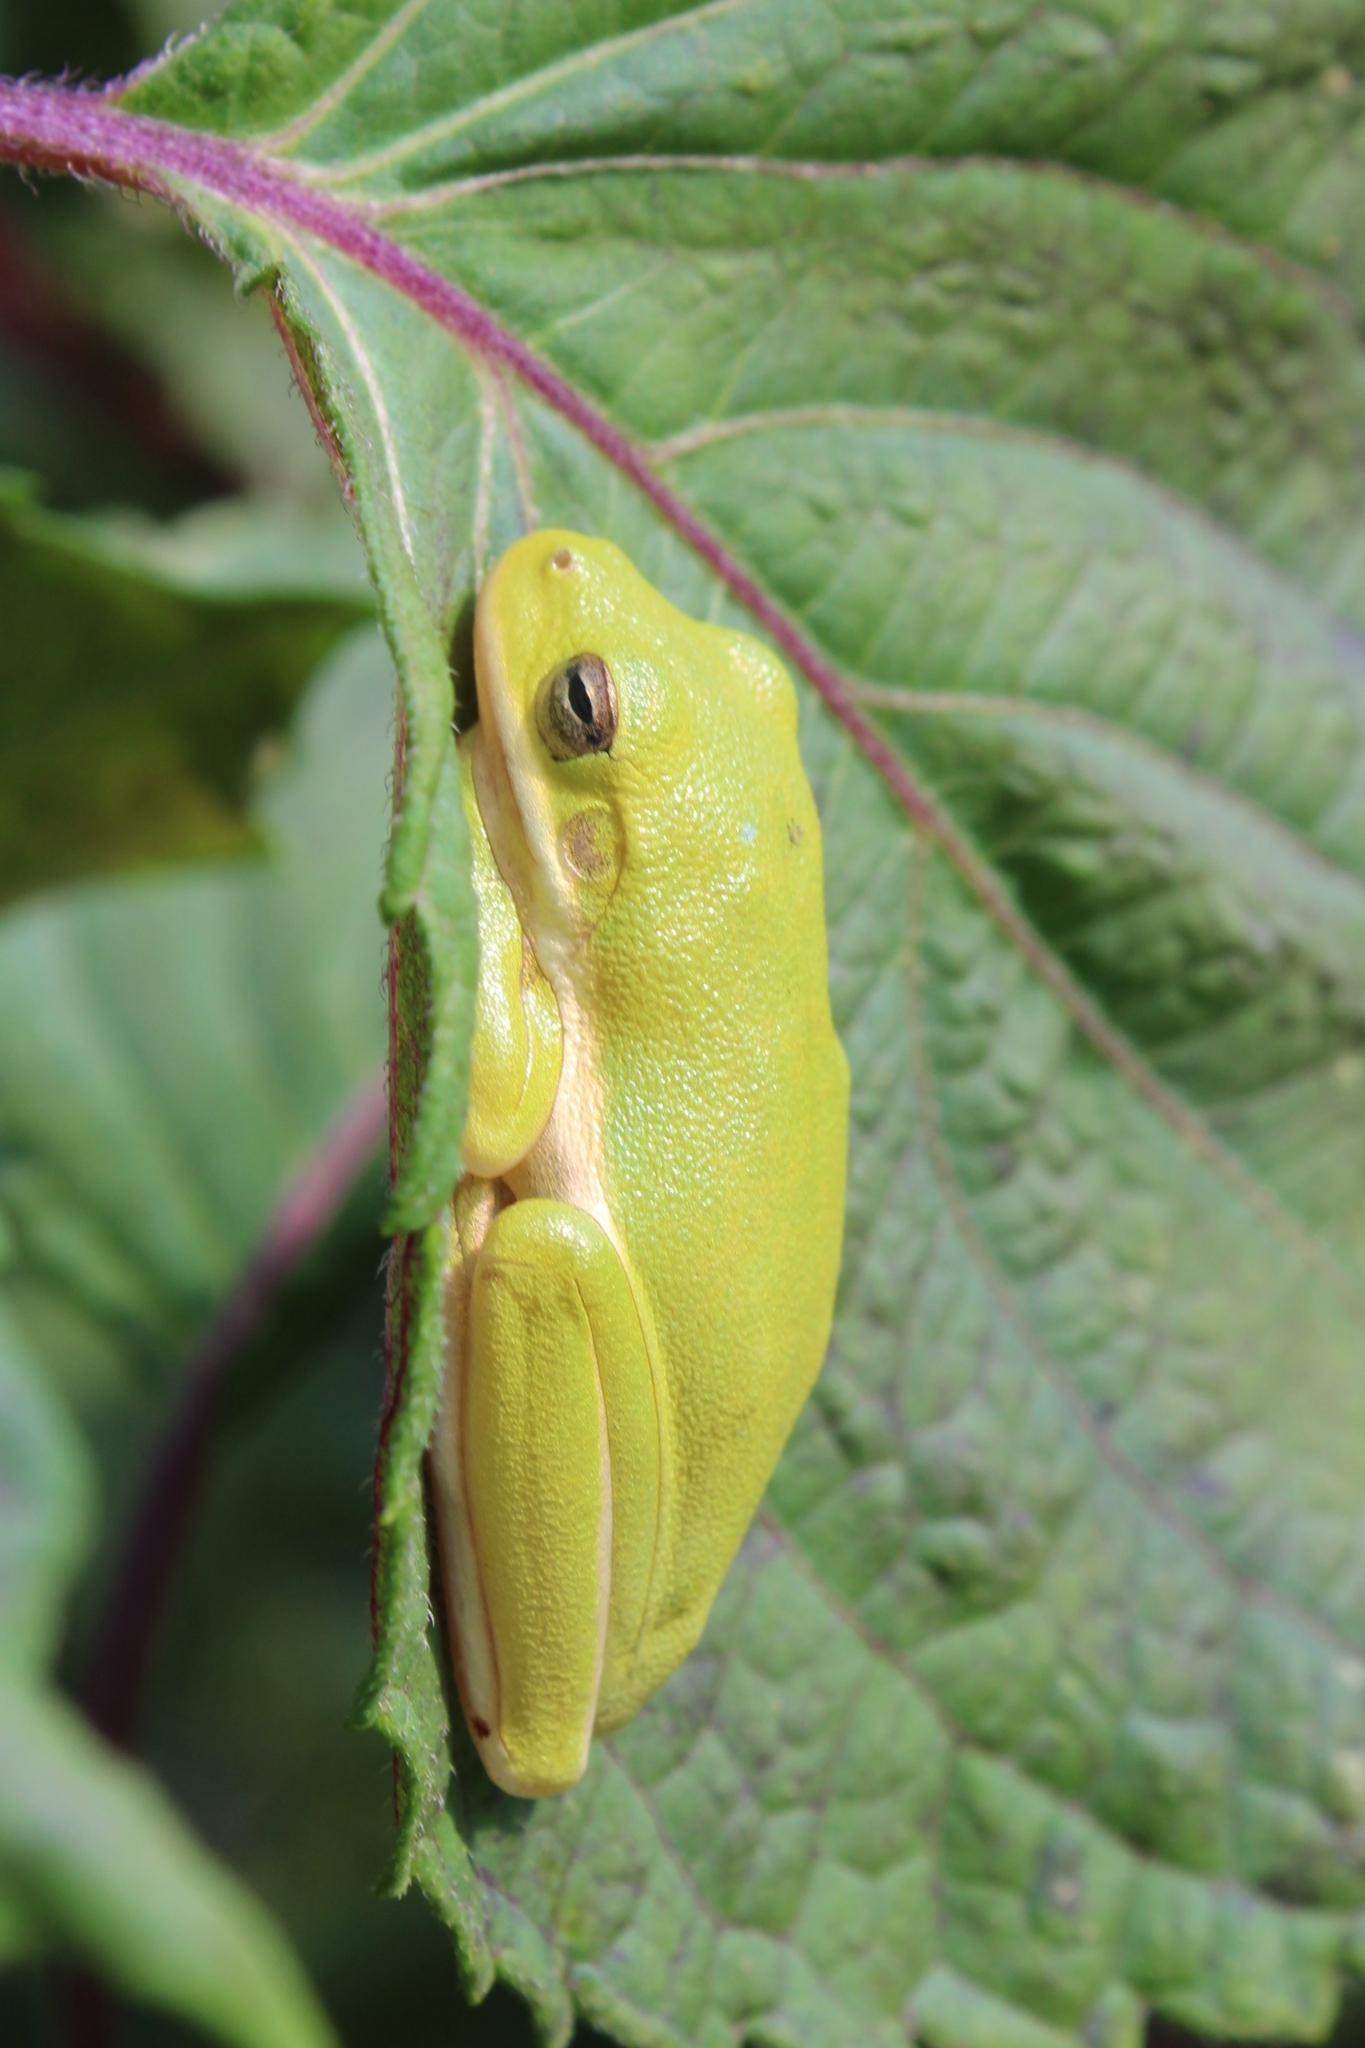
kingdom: Animalia
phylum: Chordata
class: Amphibia
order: Anura
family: Hylidae
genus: Dryophytes
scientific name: Dryophytes cinereus
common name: Green treefrog
